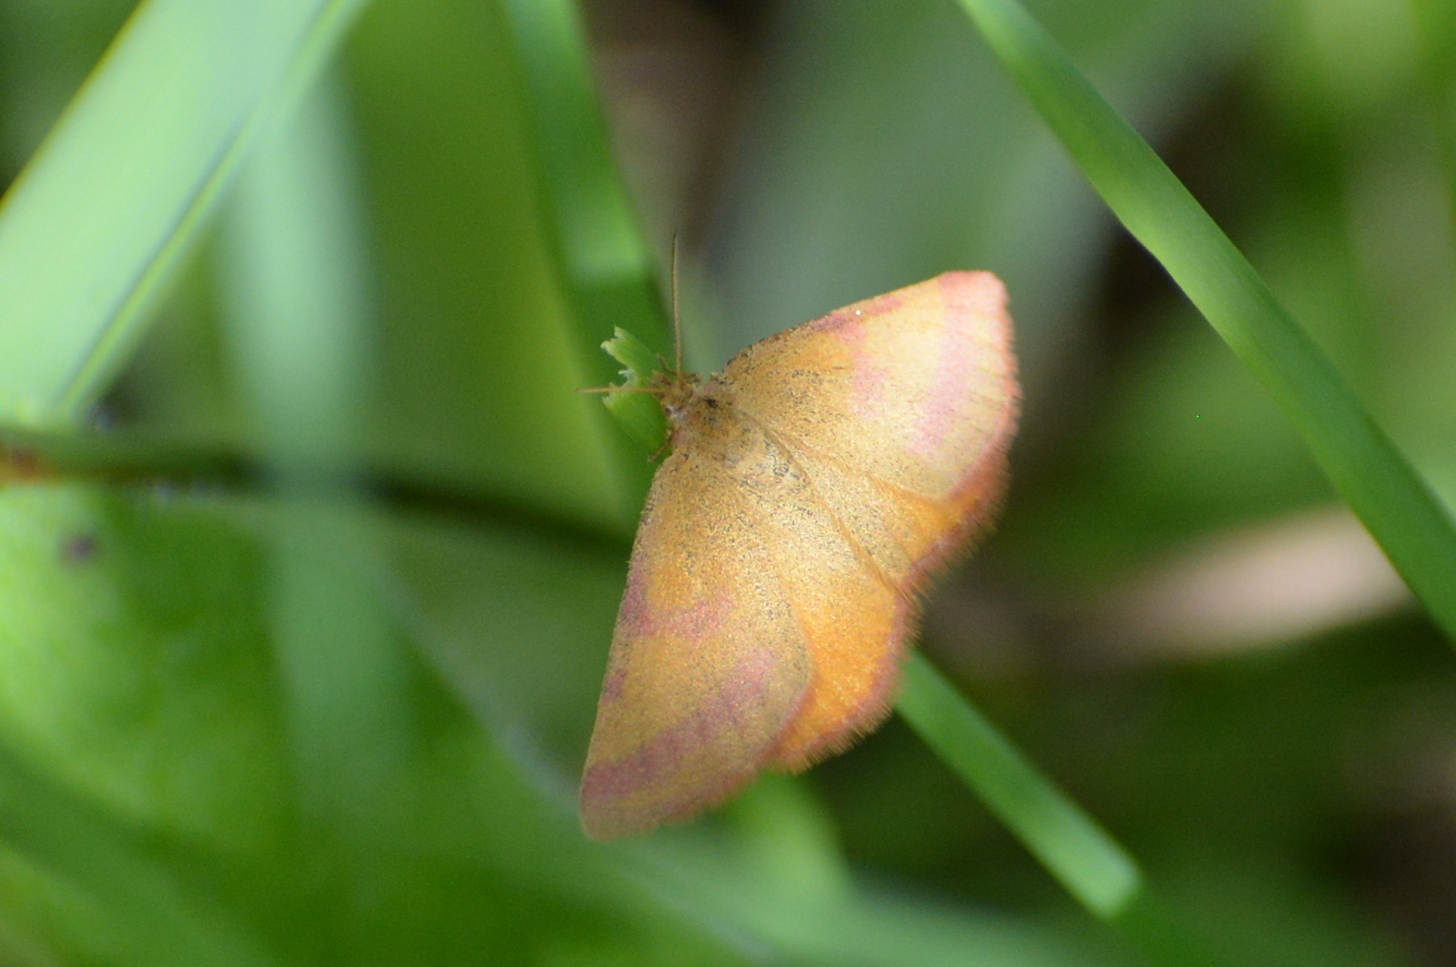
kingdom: Animalia
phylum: Arthropoda
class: Insecta
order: Lepidoptera
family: Geometridae
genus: Lythria
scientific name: Lythria purpuraria
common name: Purple-barred yellow
